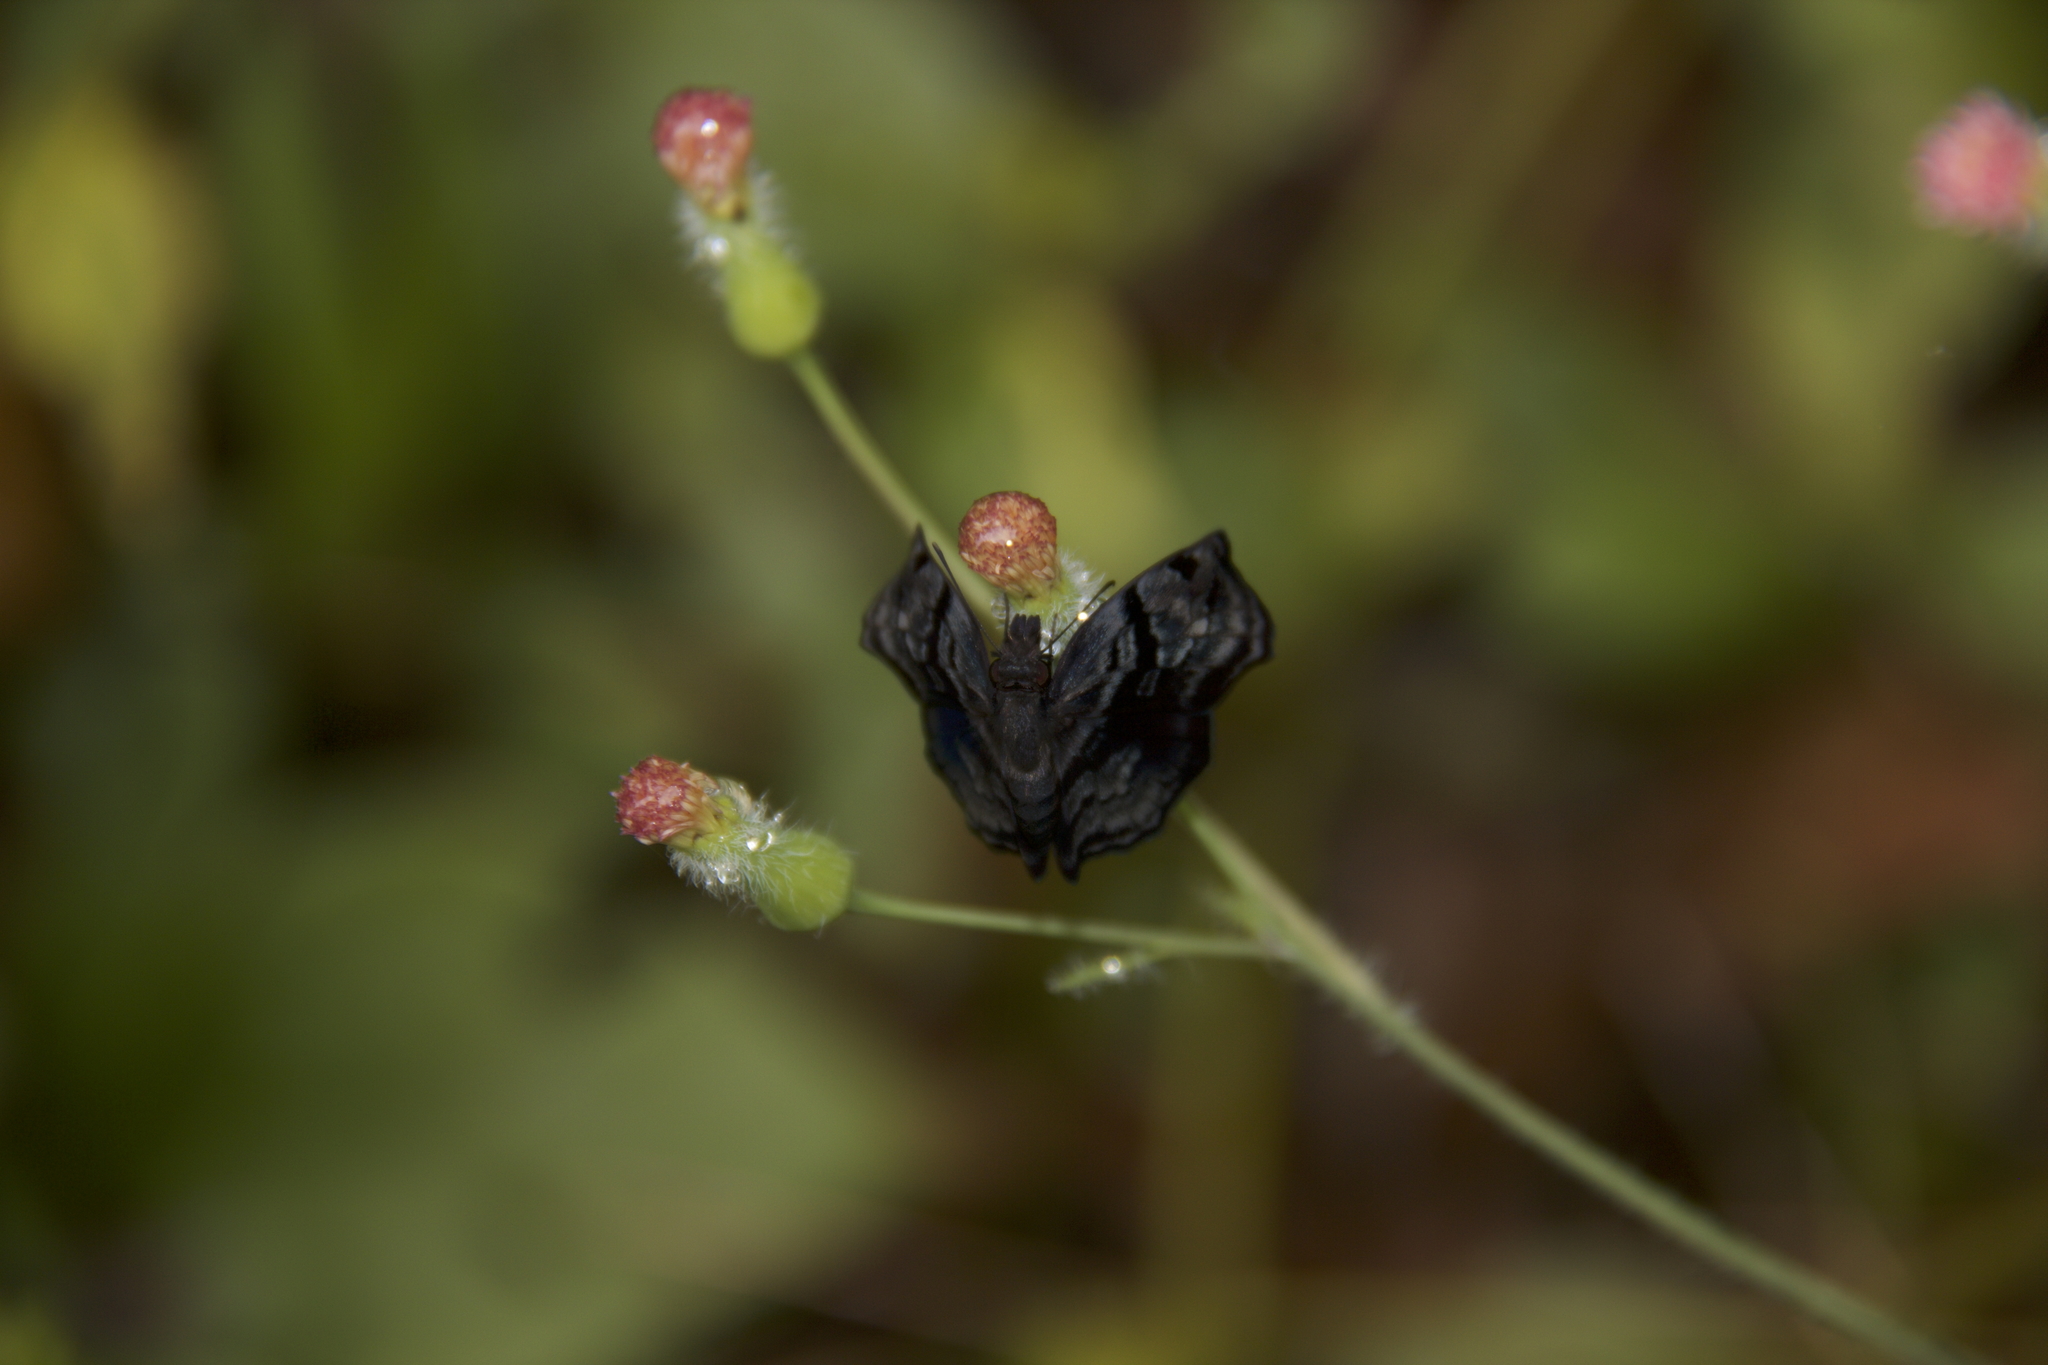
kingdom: Animalia
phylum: Arthropoda
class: Insecta
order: Lepidoptera
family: Hesperiidae
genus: Helias
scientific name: Helias phalaenoides
